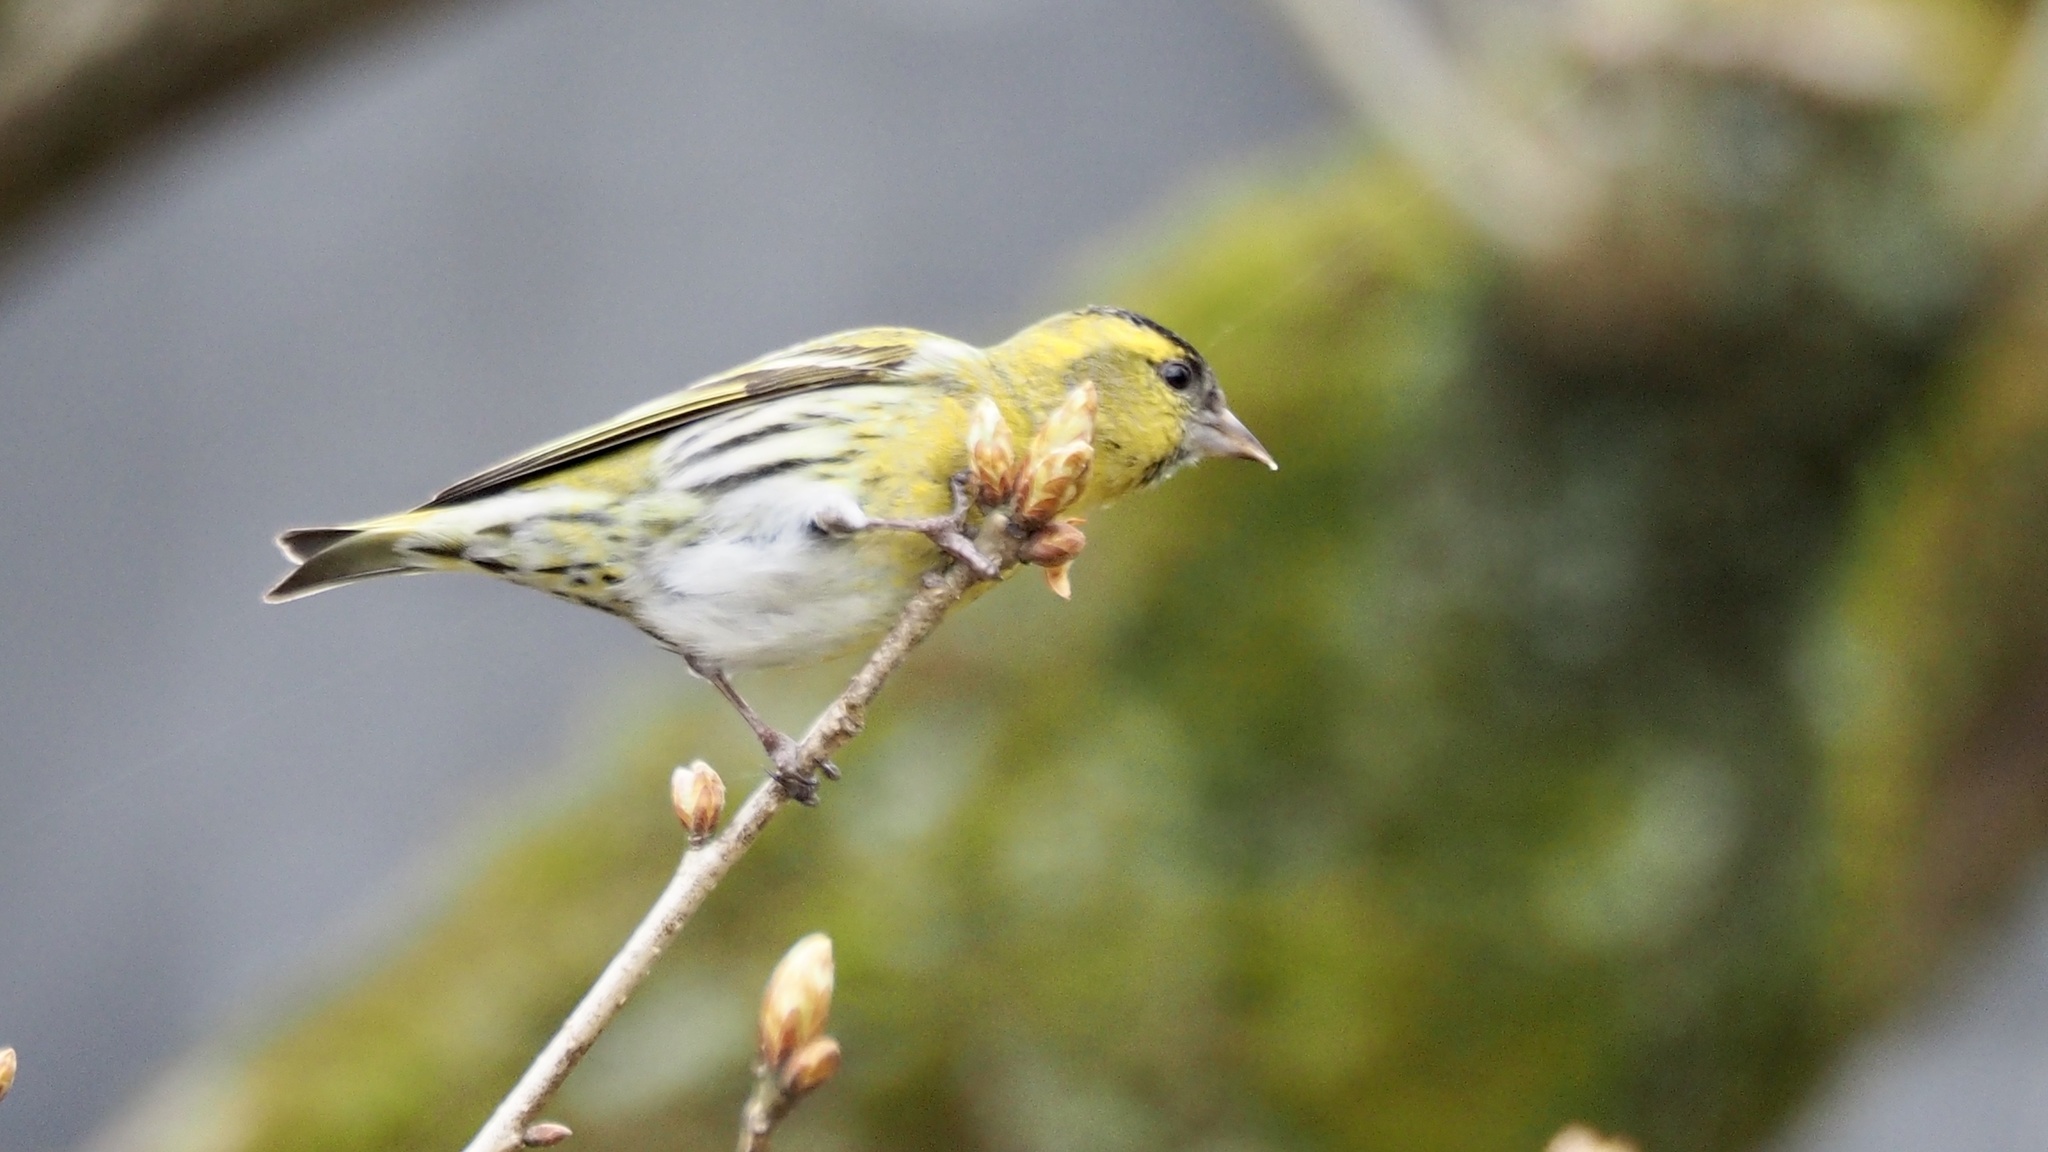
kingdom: Animalia
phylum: Chordata
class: Aves
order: Passeriformes
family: Fringillidae
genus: Spinus
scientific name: Spinus spinus
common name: Eurasian siskin
